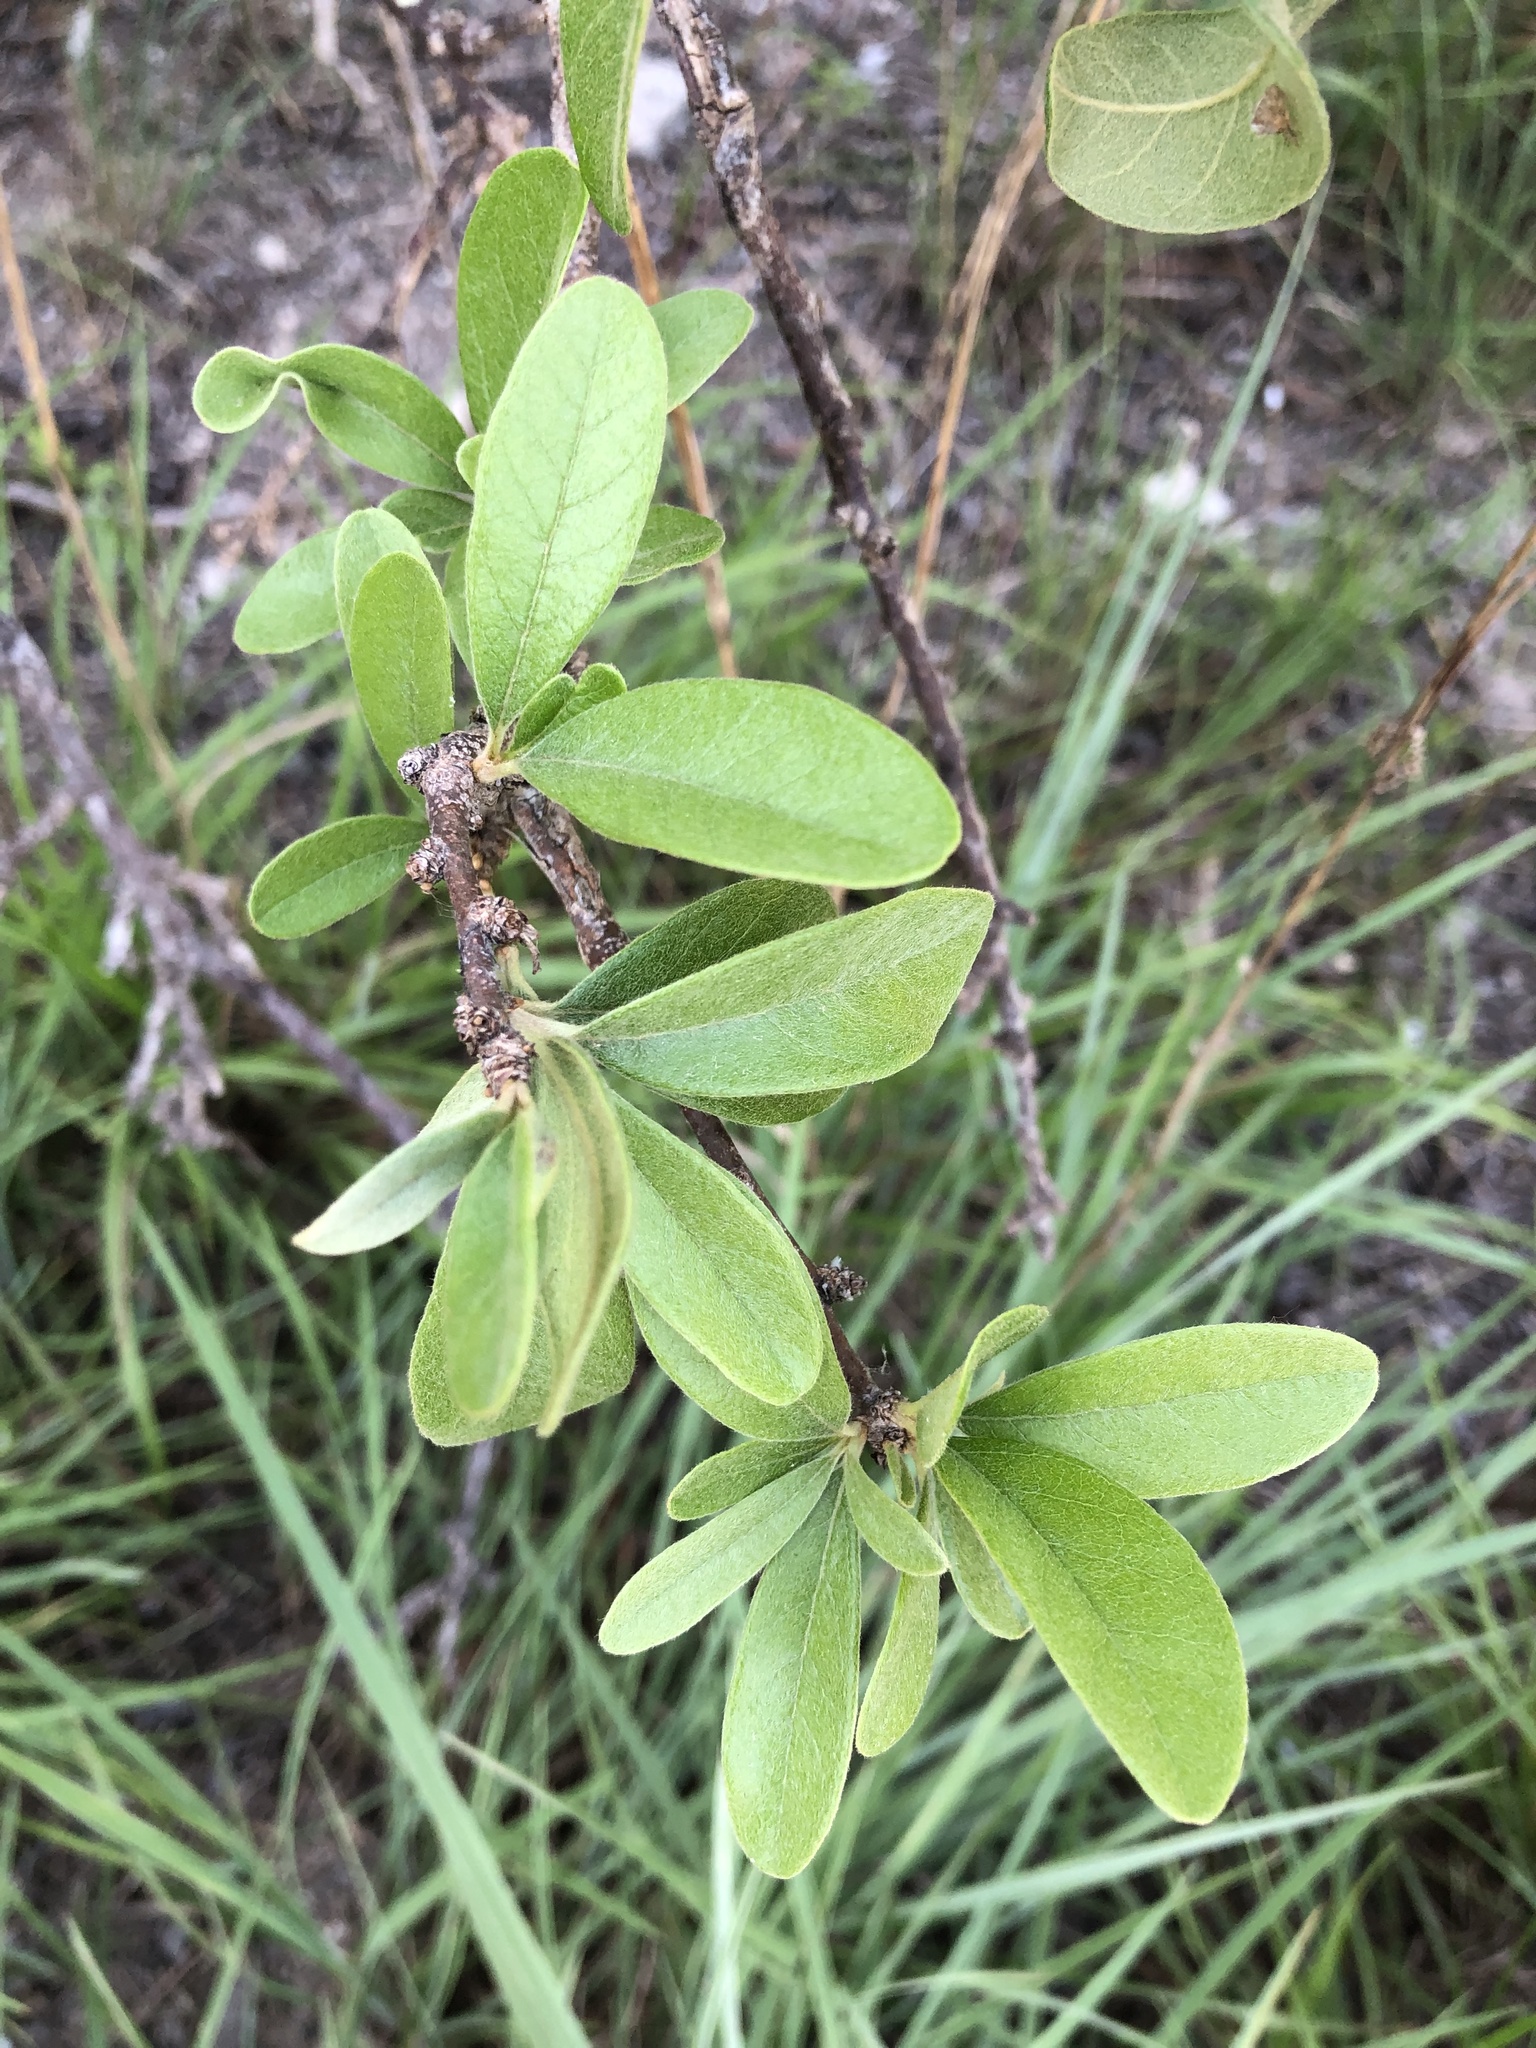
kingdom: Plantae
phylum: Tracheophyta
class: Magnoliopsida
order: Ericales
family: Sapotaceae
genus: Sideroxylon
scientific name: Sideroxylon lanuginosum
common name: Chittamwood
